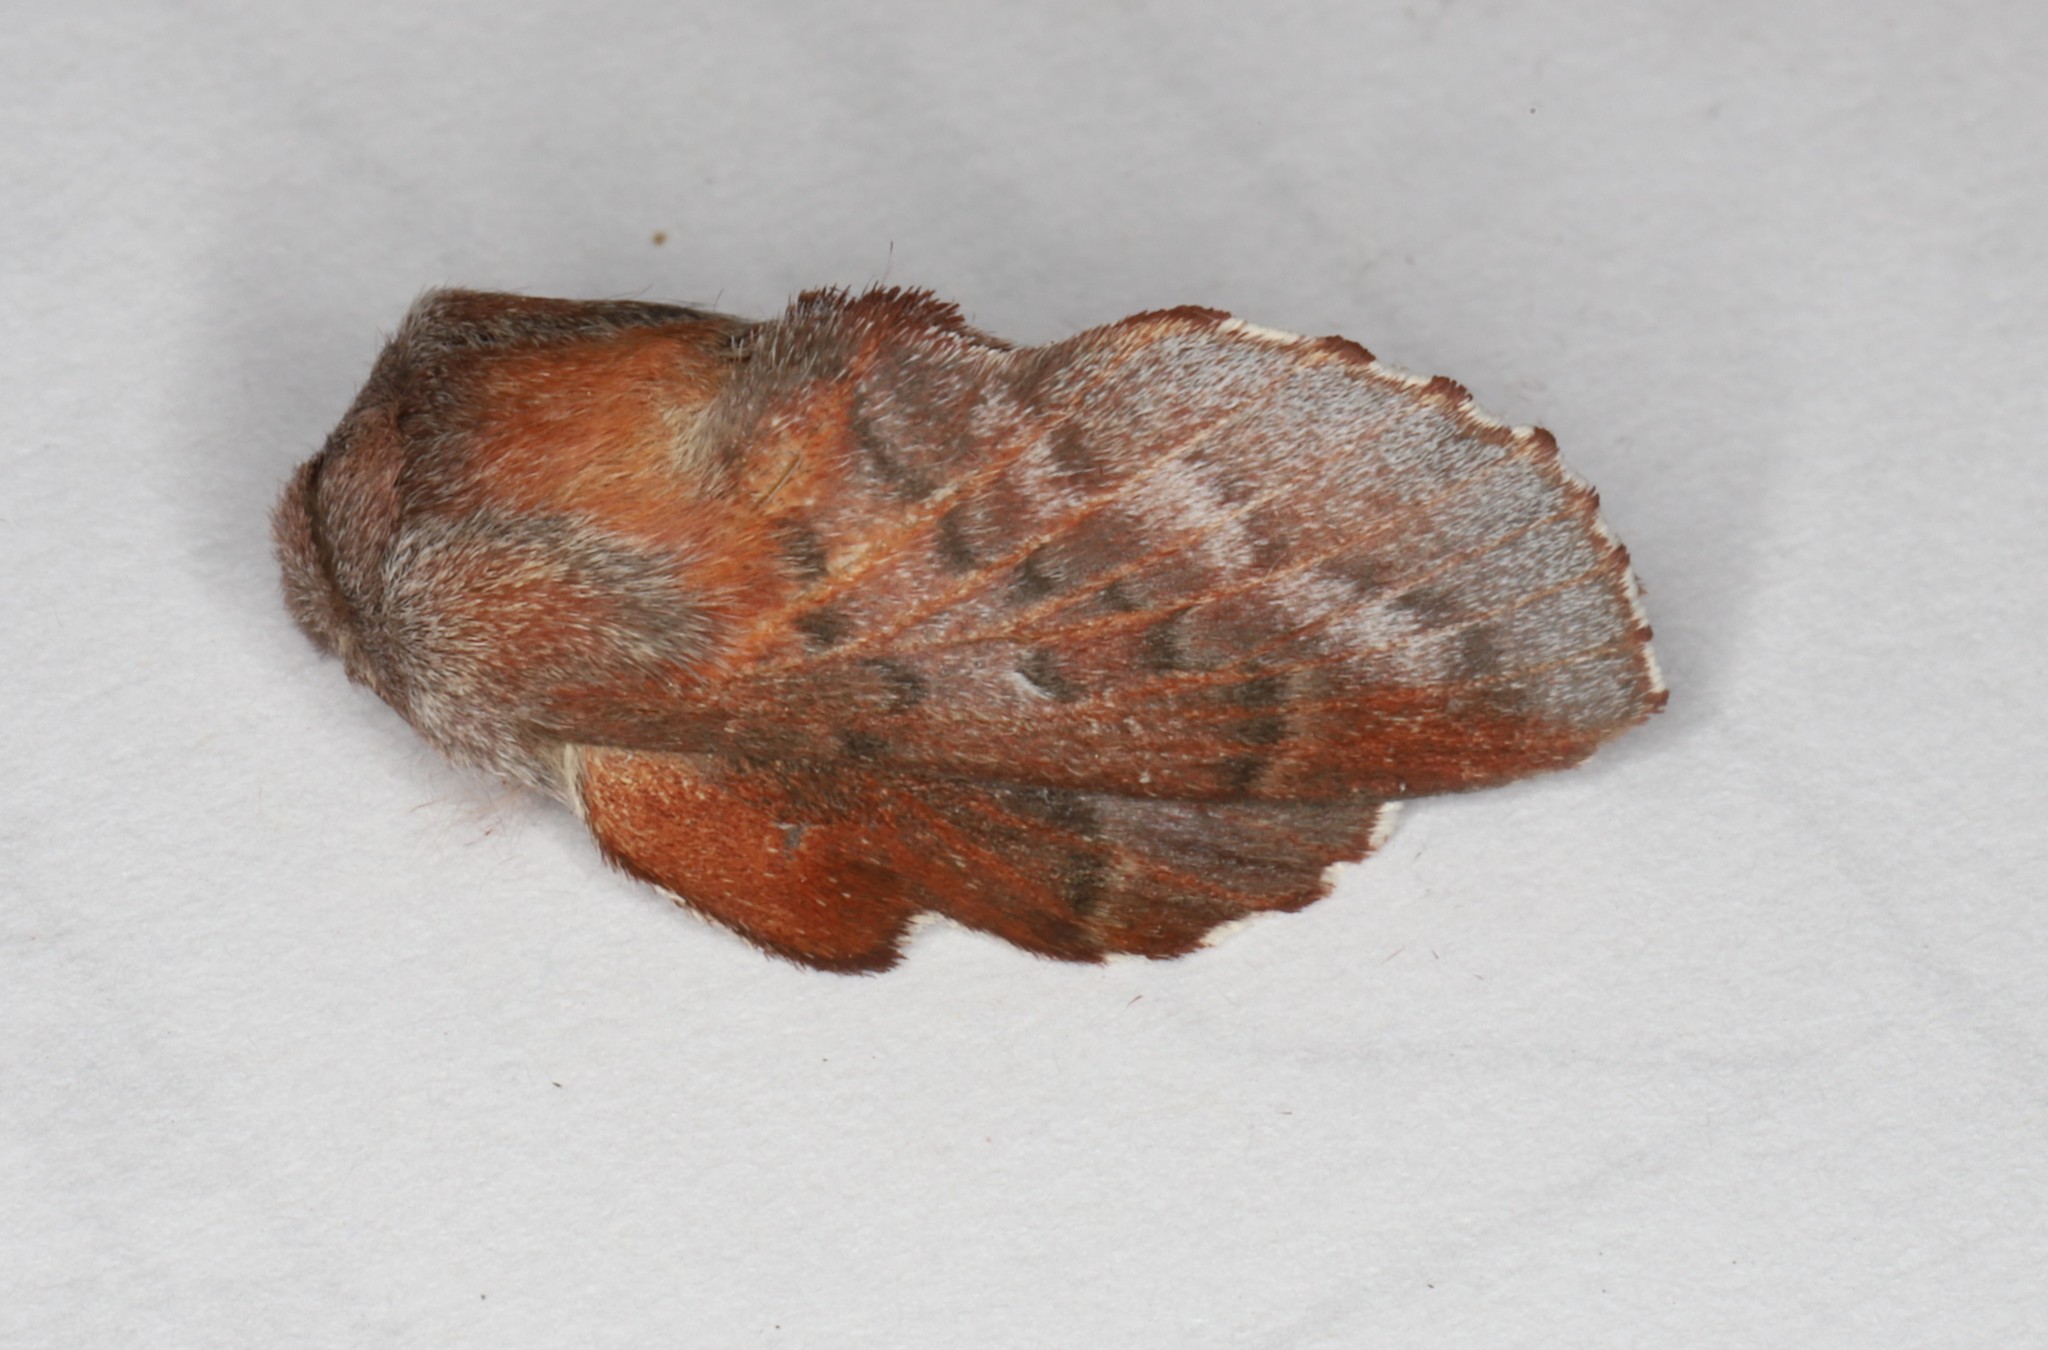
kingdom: Animalia
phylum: Arthropoda
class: Insecta
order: Lepidoptera
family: Lasiocampidae
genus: Phyllodesma
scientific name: Phyllodesma americana
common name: American lappet moth
